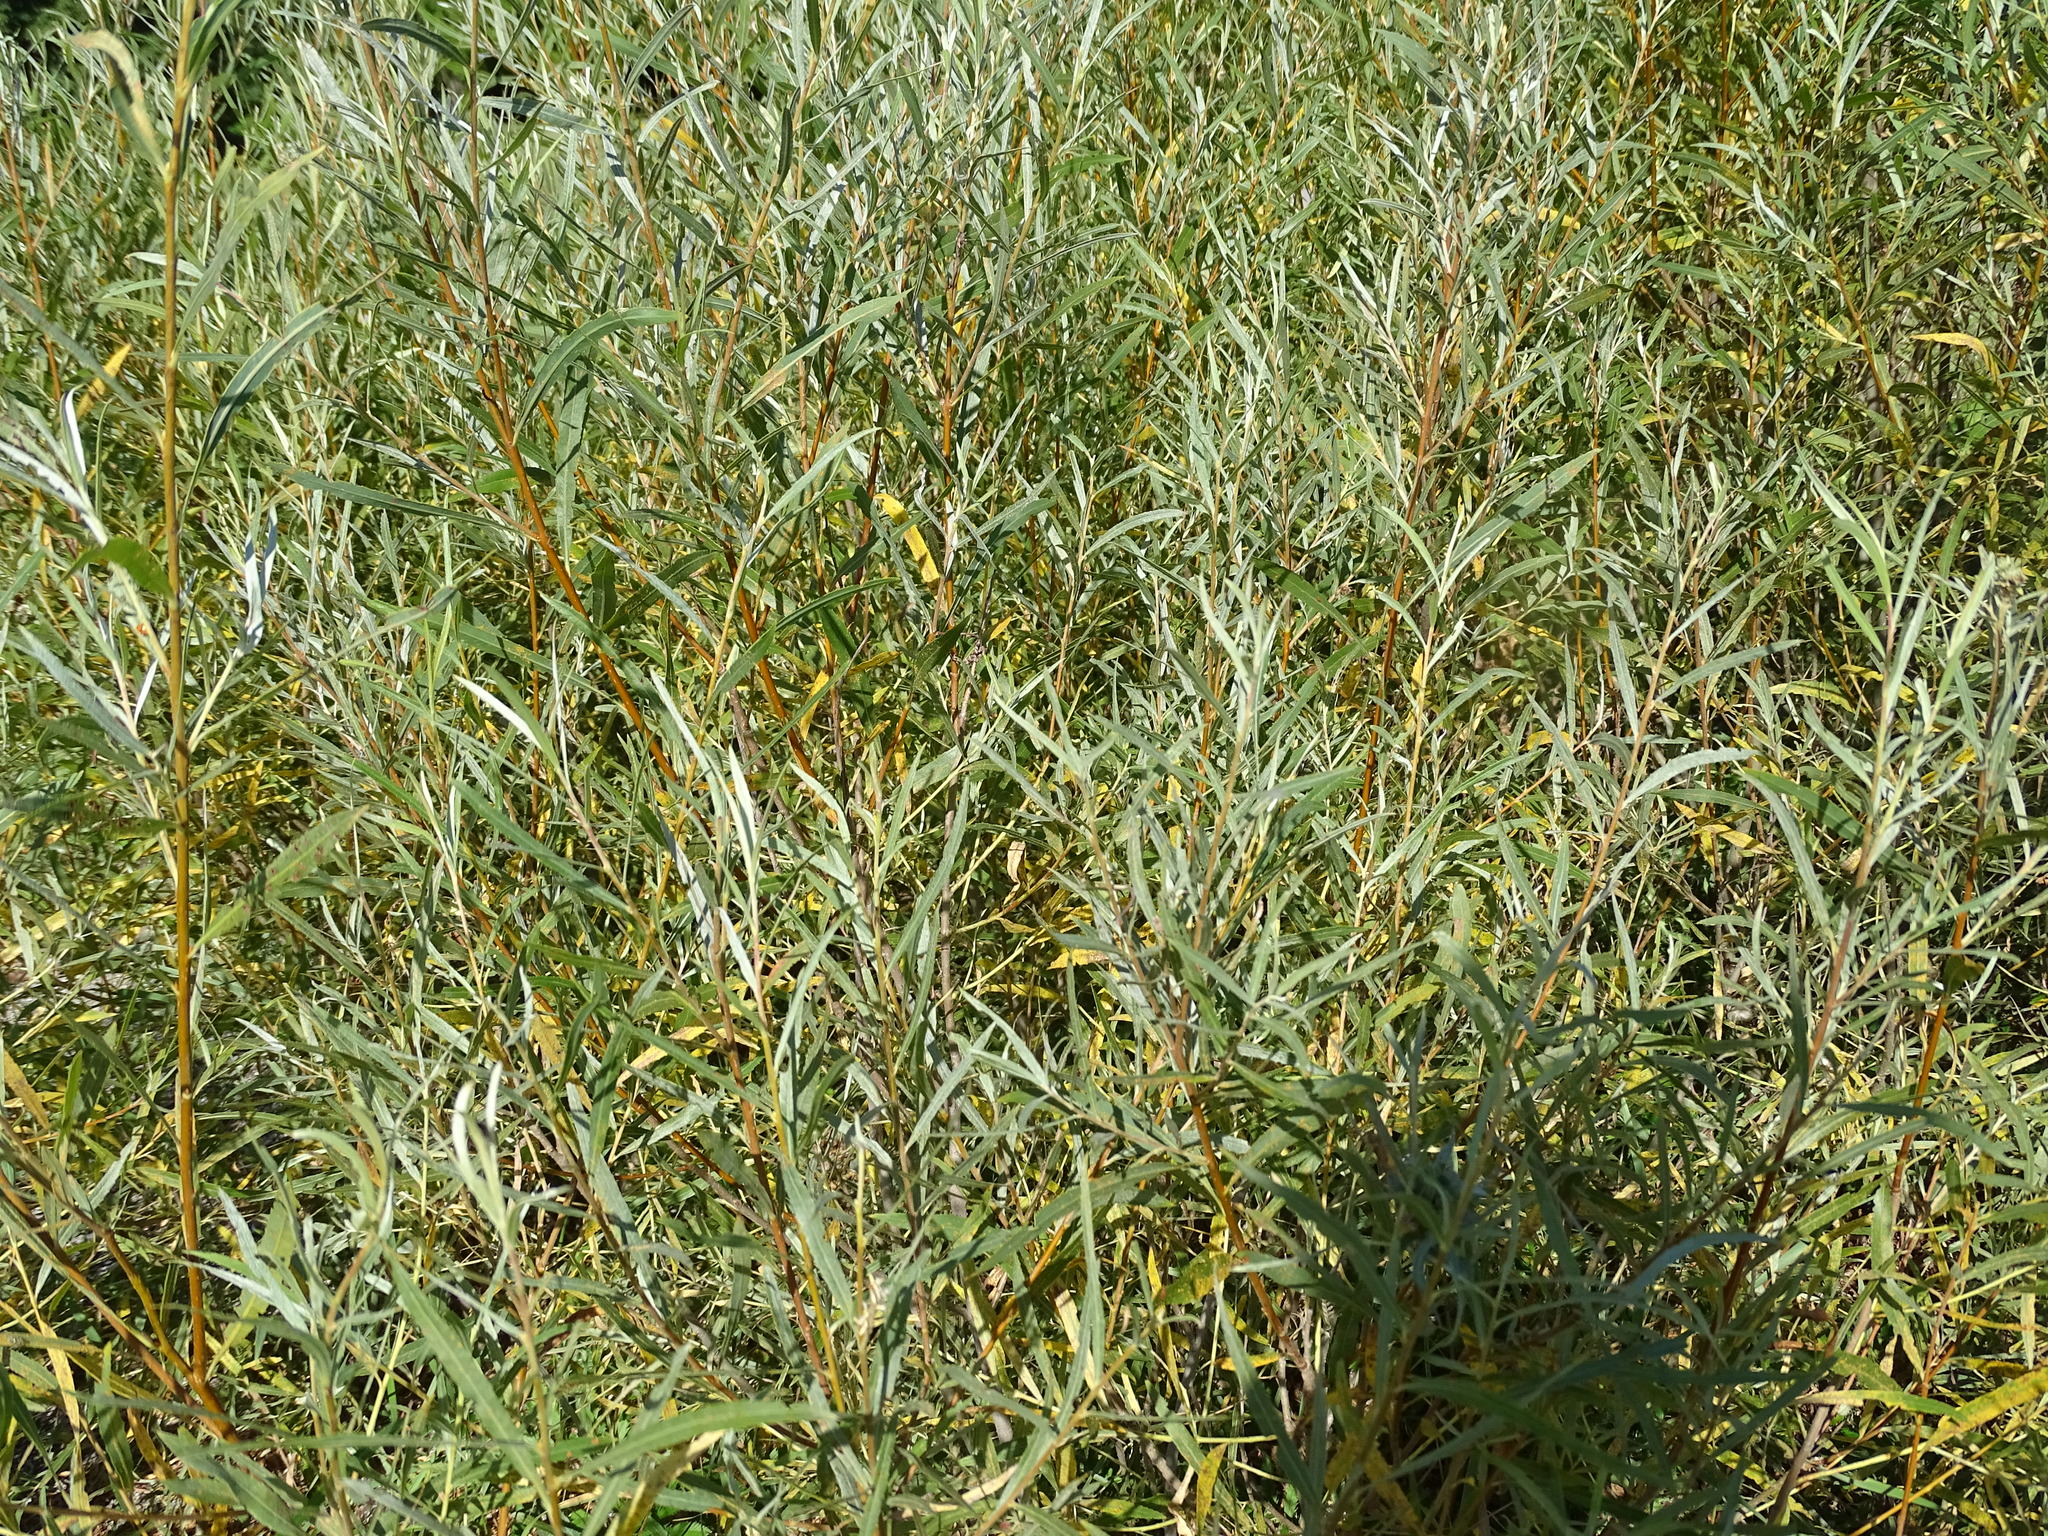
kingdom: Plantae
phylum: Tracheophyta
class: Magnoliopsida
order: Malpighiales
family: Salicaceae
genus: Salix
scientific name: Salix interior
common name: Sandbar willow
